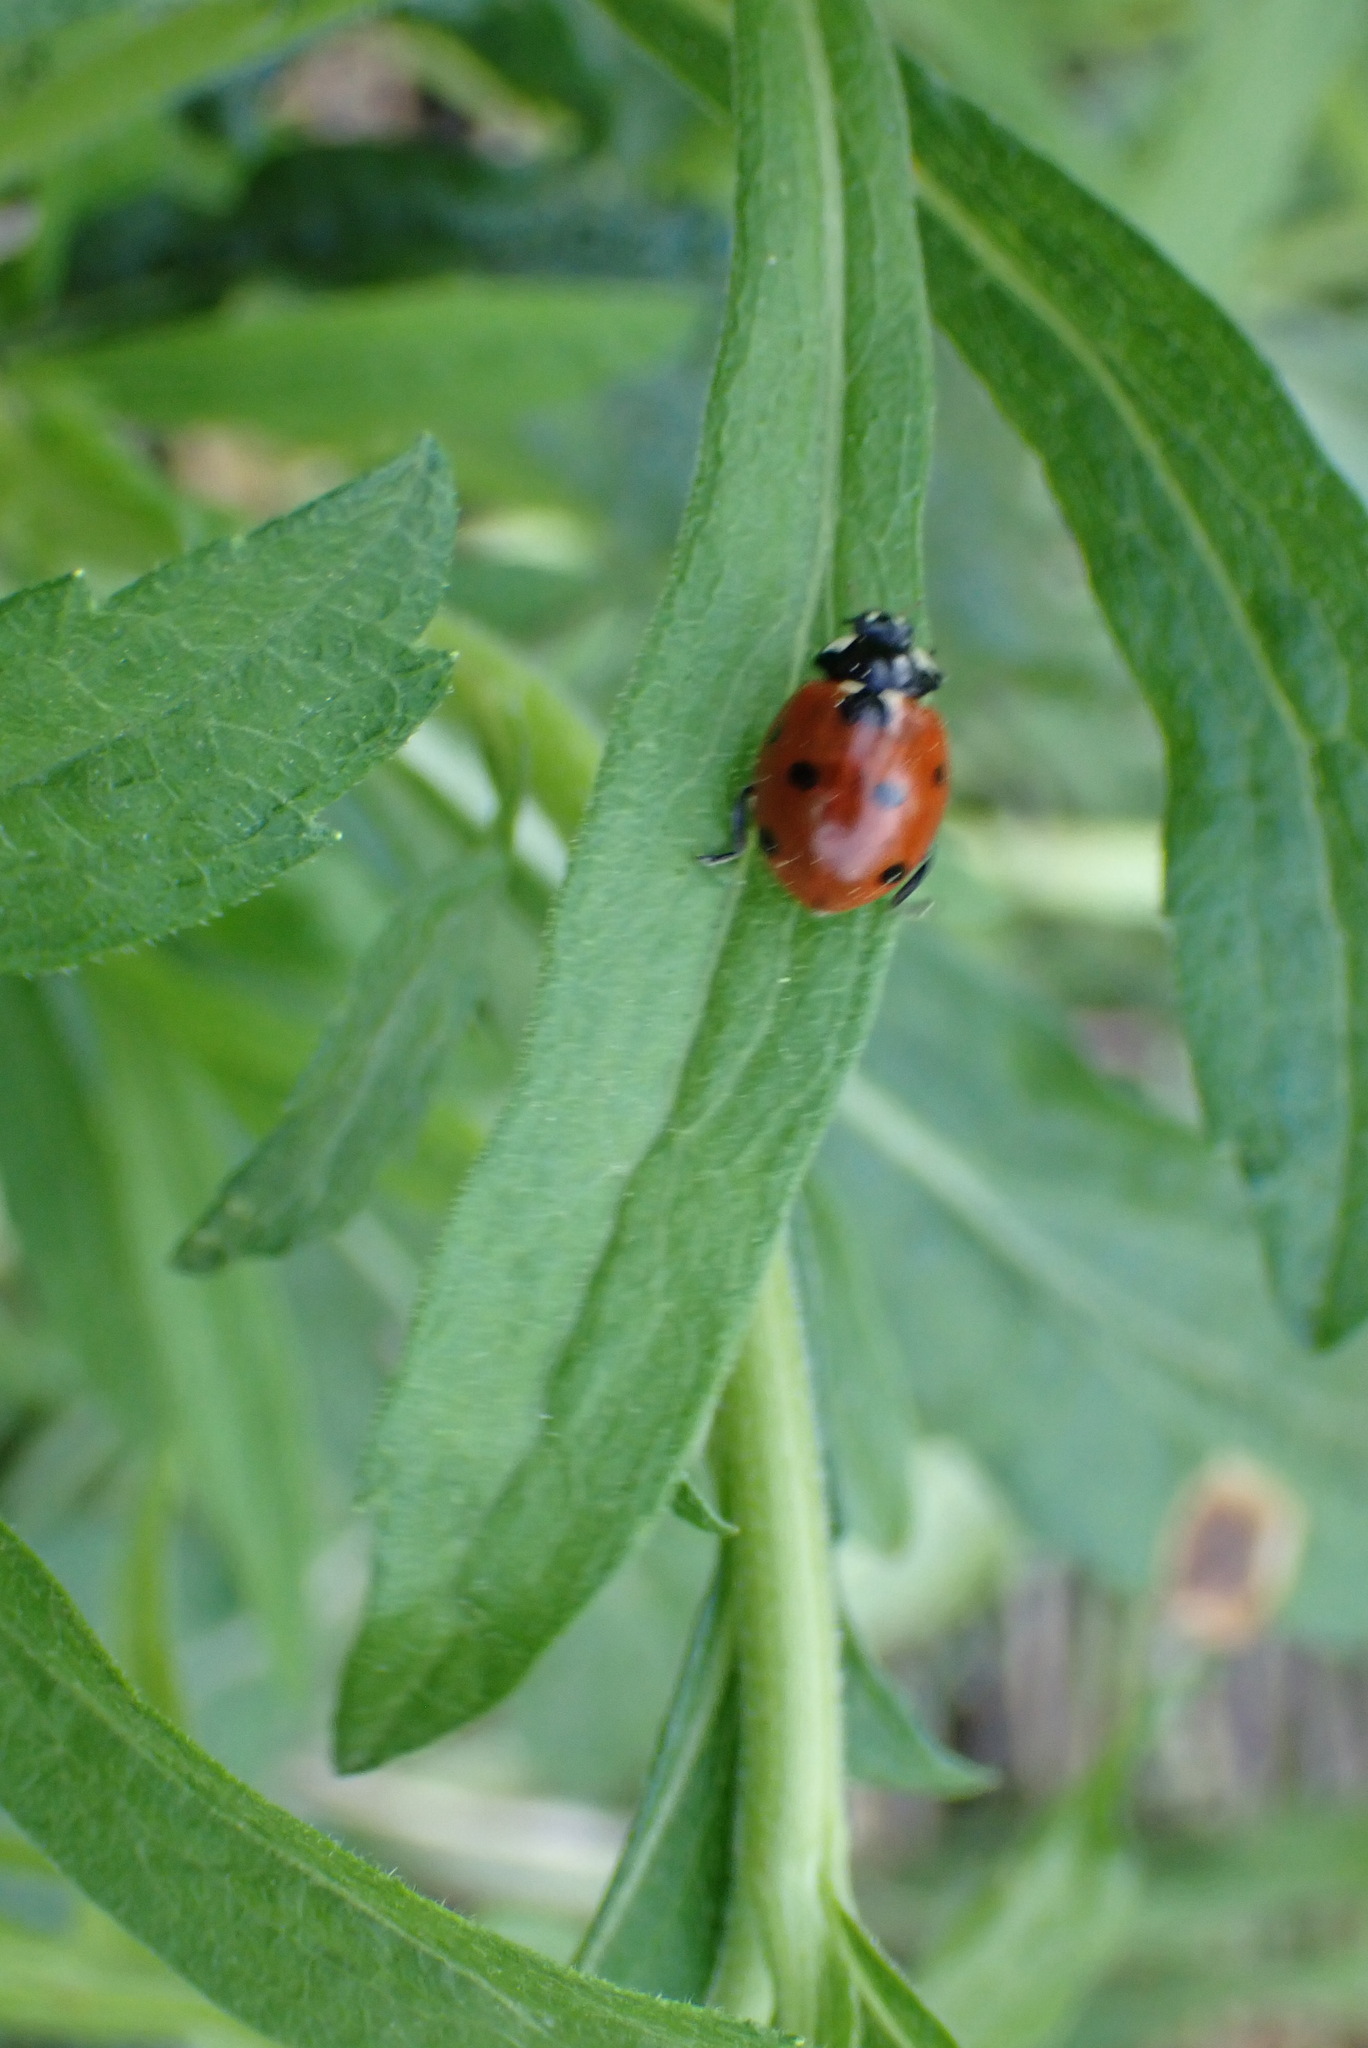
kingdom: Animalia
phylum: Arthropoda
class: Insecta
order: Coleoptera
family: Coccinellidae
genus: Coccinella
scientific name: Coccinella septempunctata
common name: Sevenspotted lady beetle
